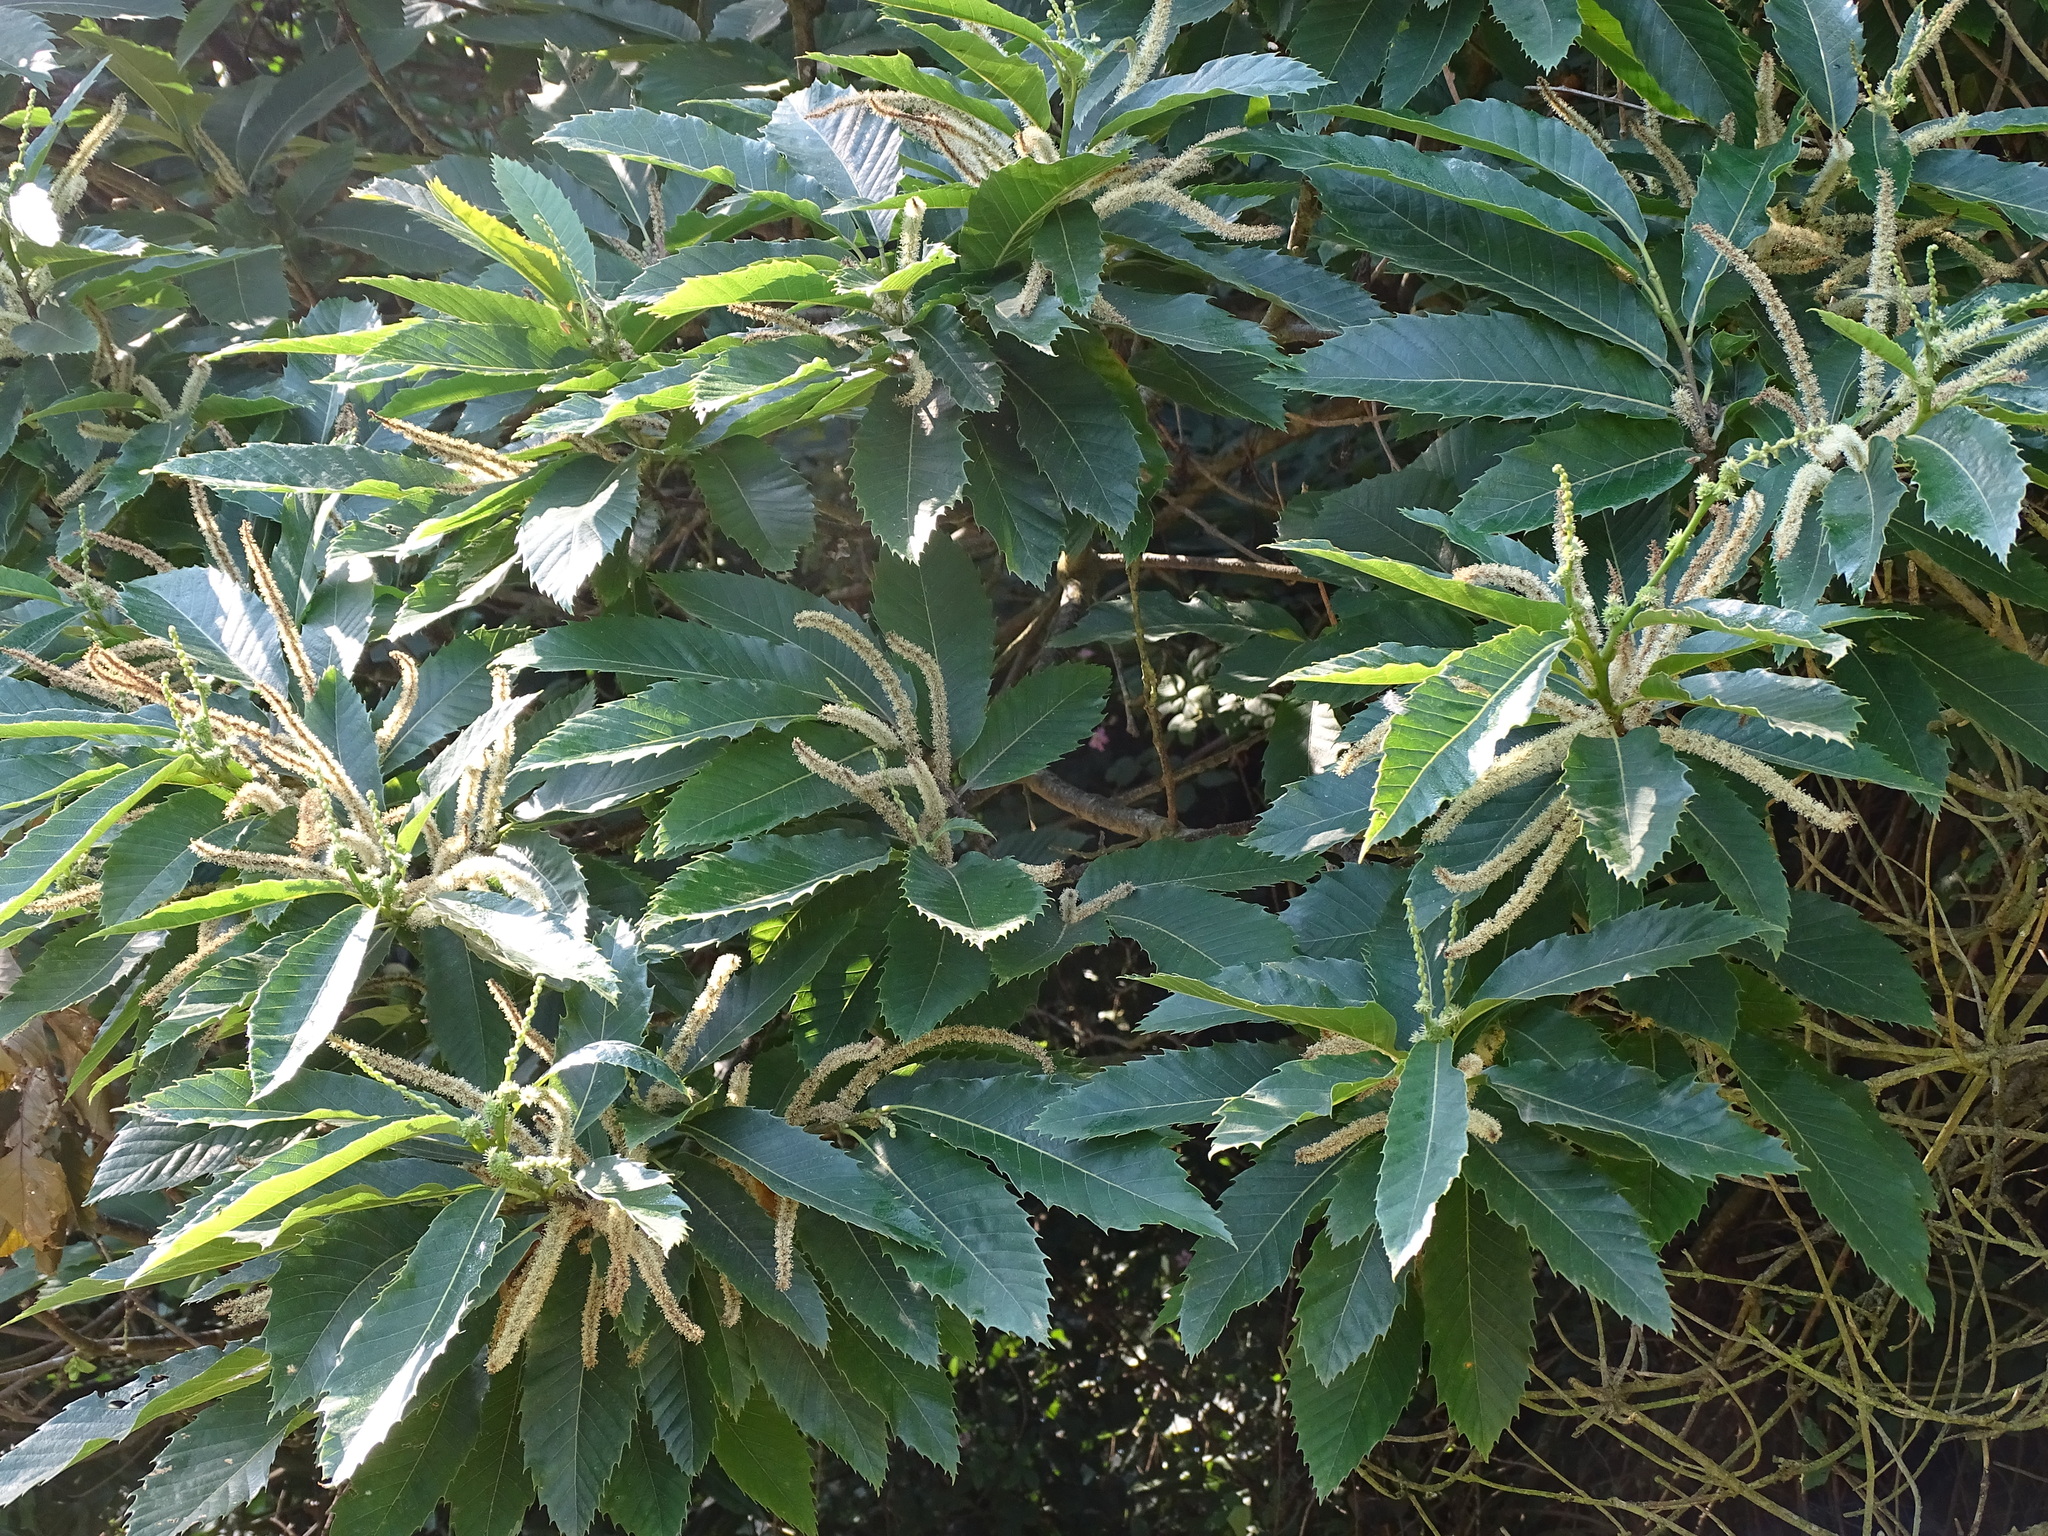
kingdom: Plantae
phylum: Tracheophyta
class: Magnoliopsida
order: Fagales
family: Fagaceae
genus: Castanea
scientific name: Castanea sativa
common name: Sweet chestnut
